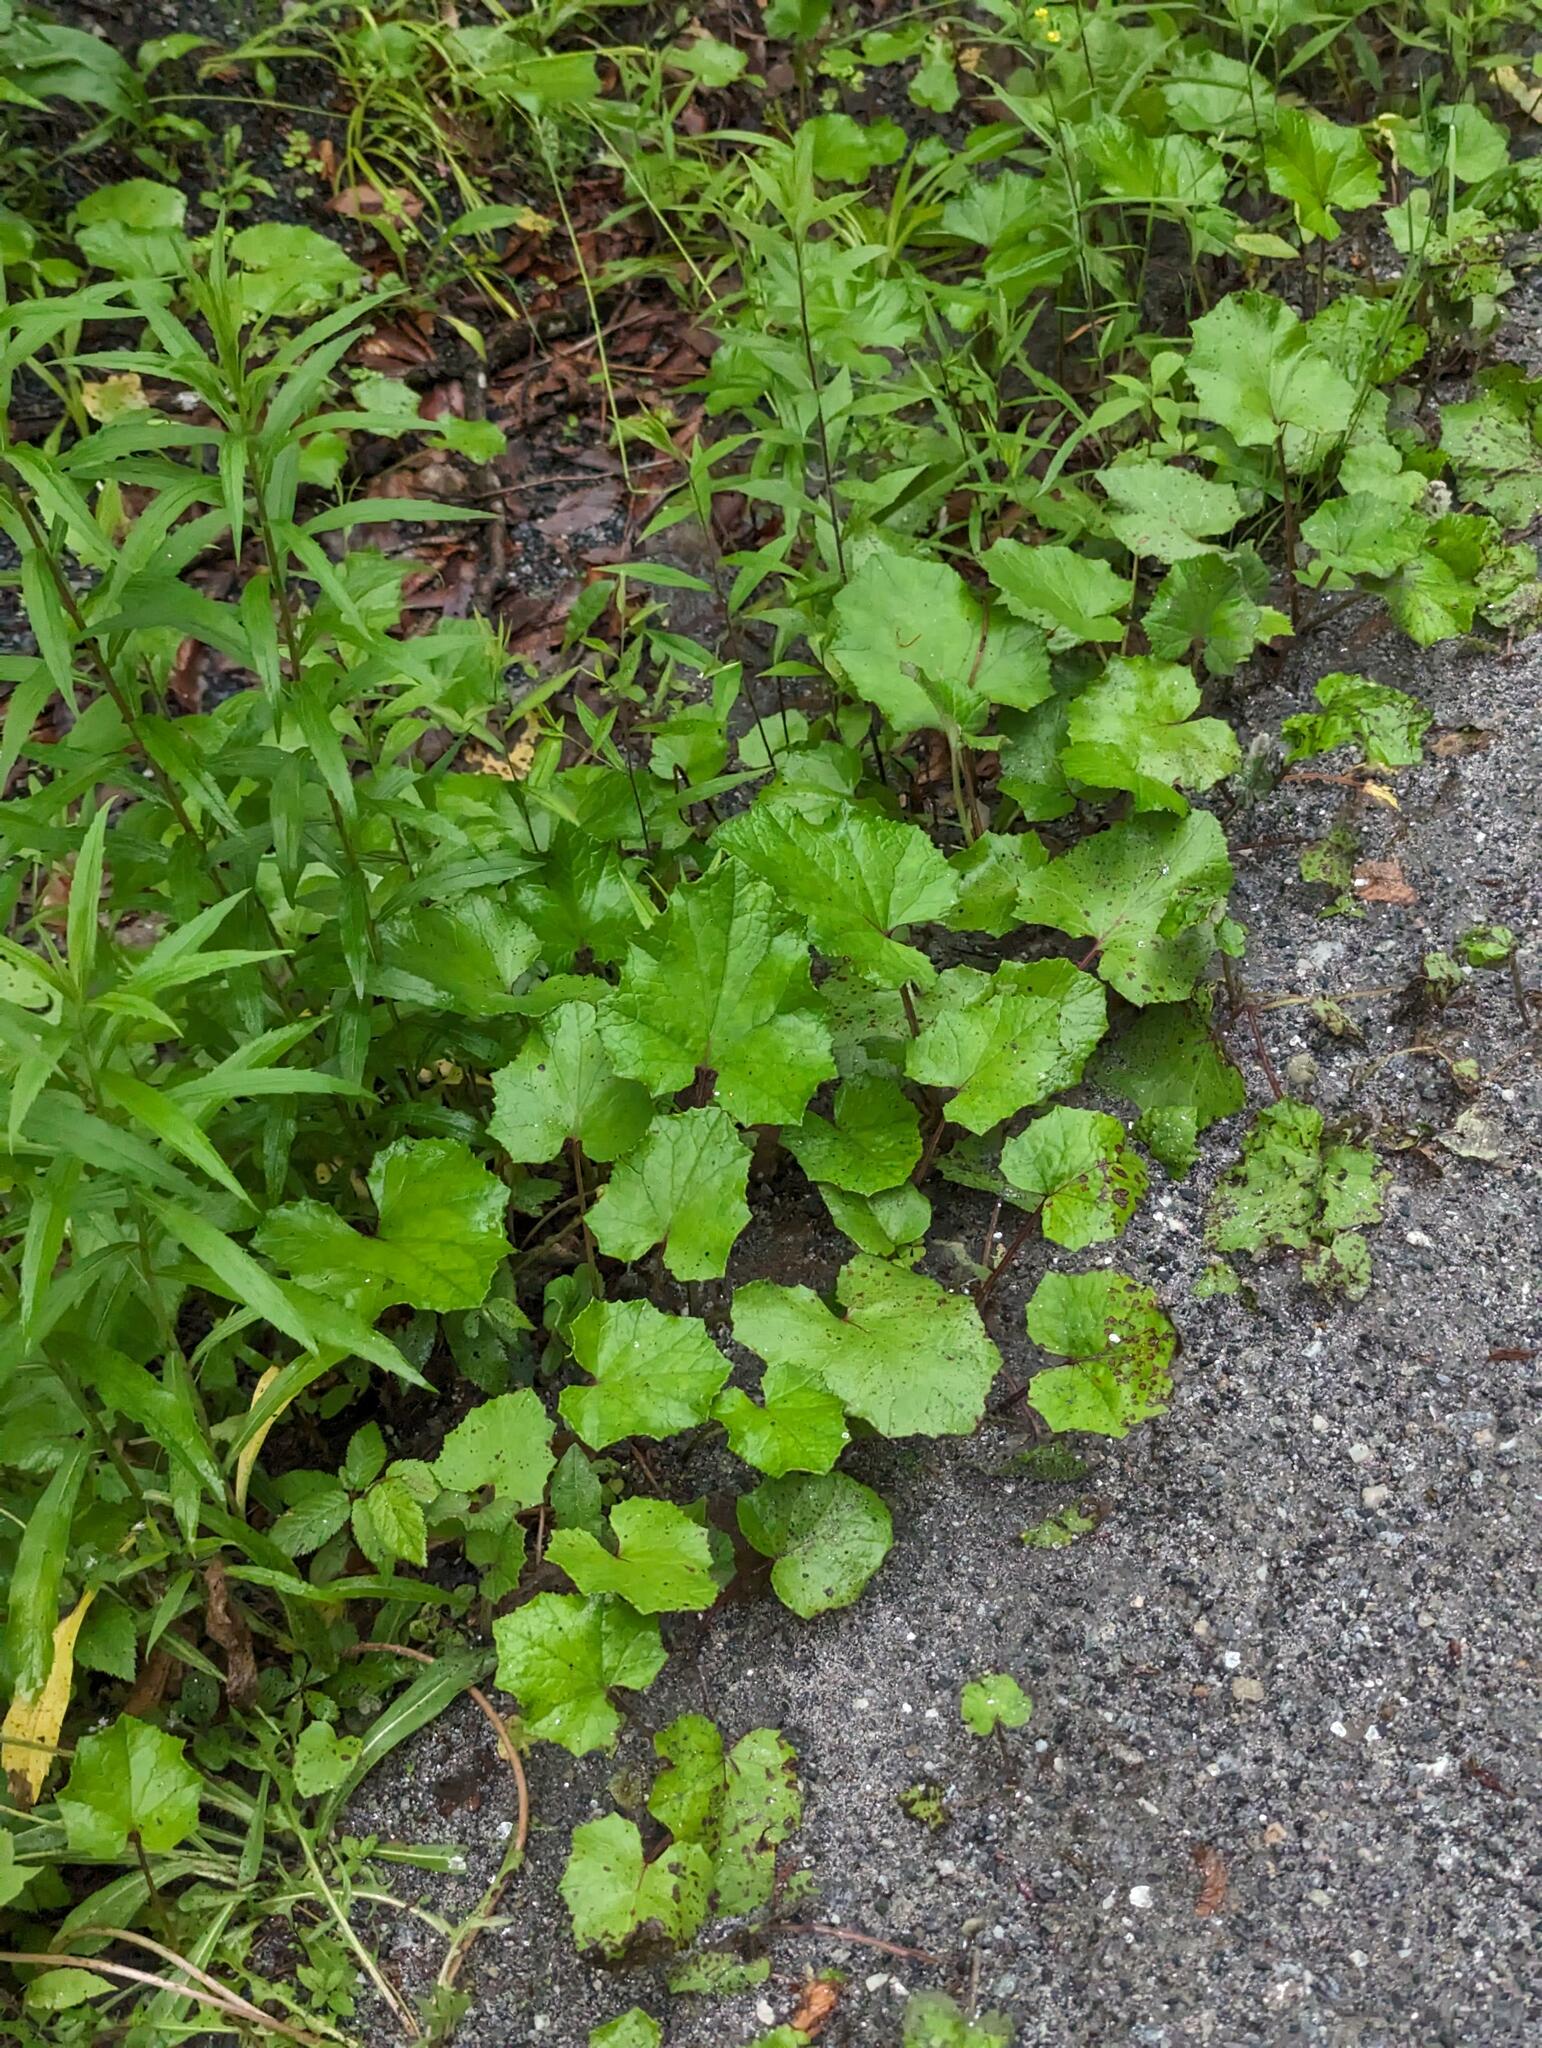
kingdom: Plantae
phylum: Tracheophyta
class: Magnoliopsida
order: Asterales
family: Asteraceae
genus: Tussilago
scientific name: Tussilago farfara
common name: Coltsfoot
